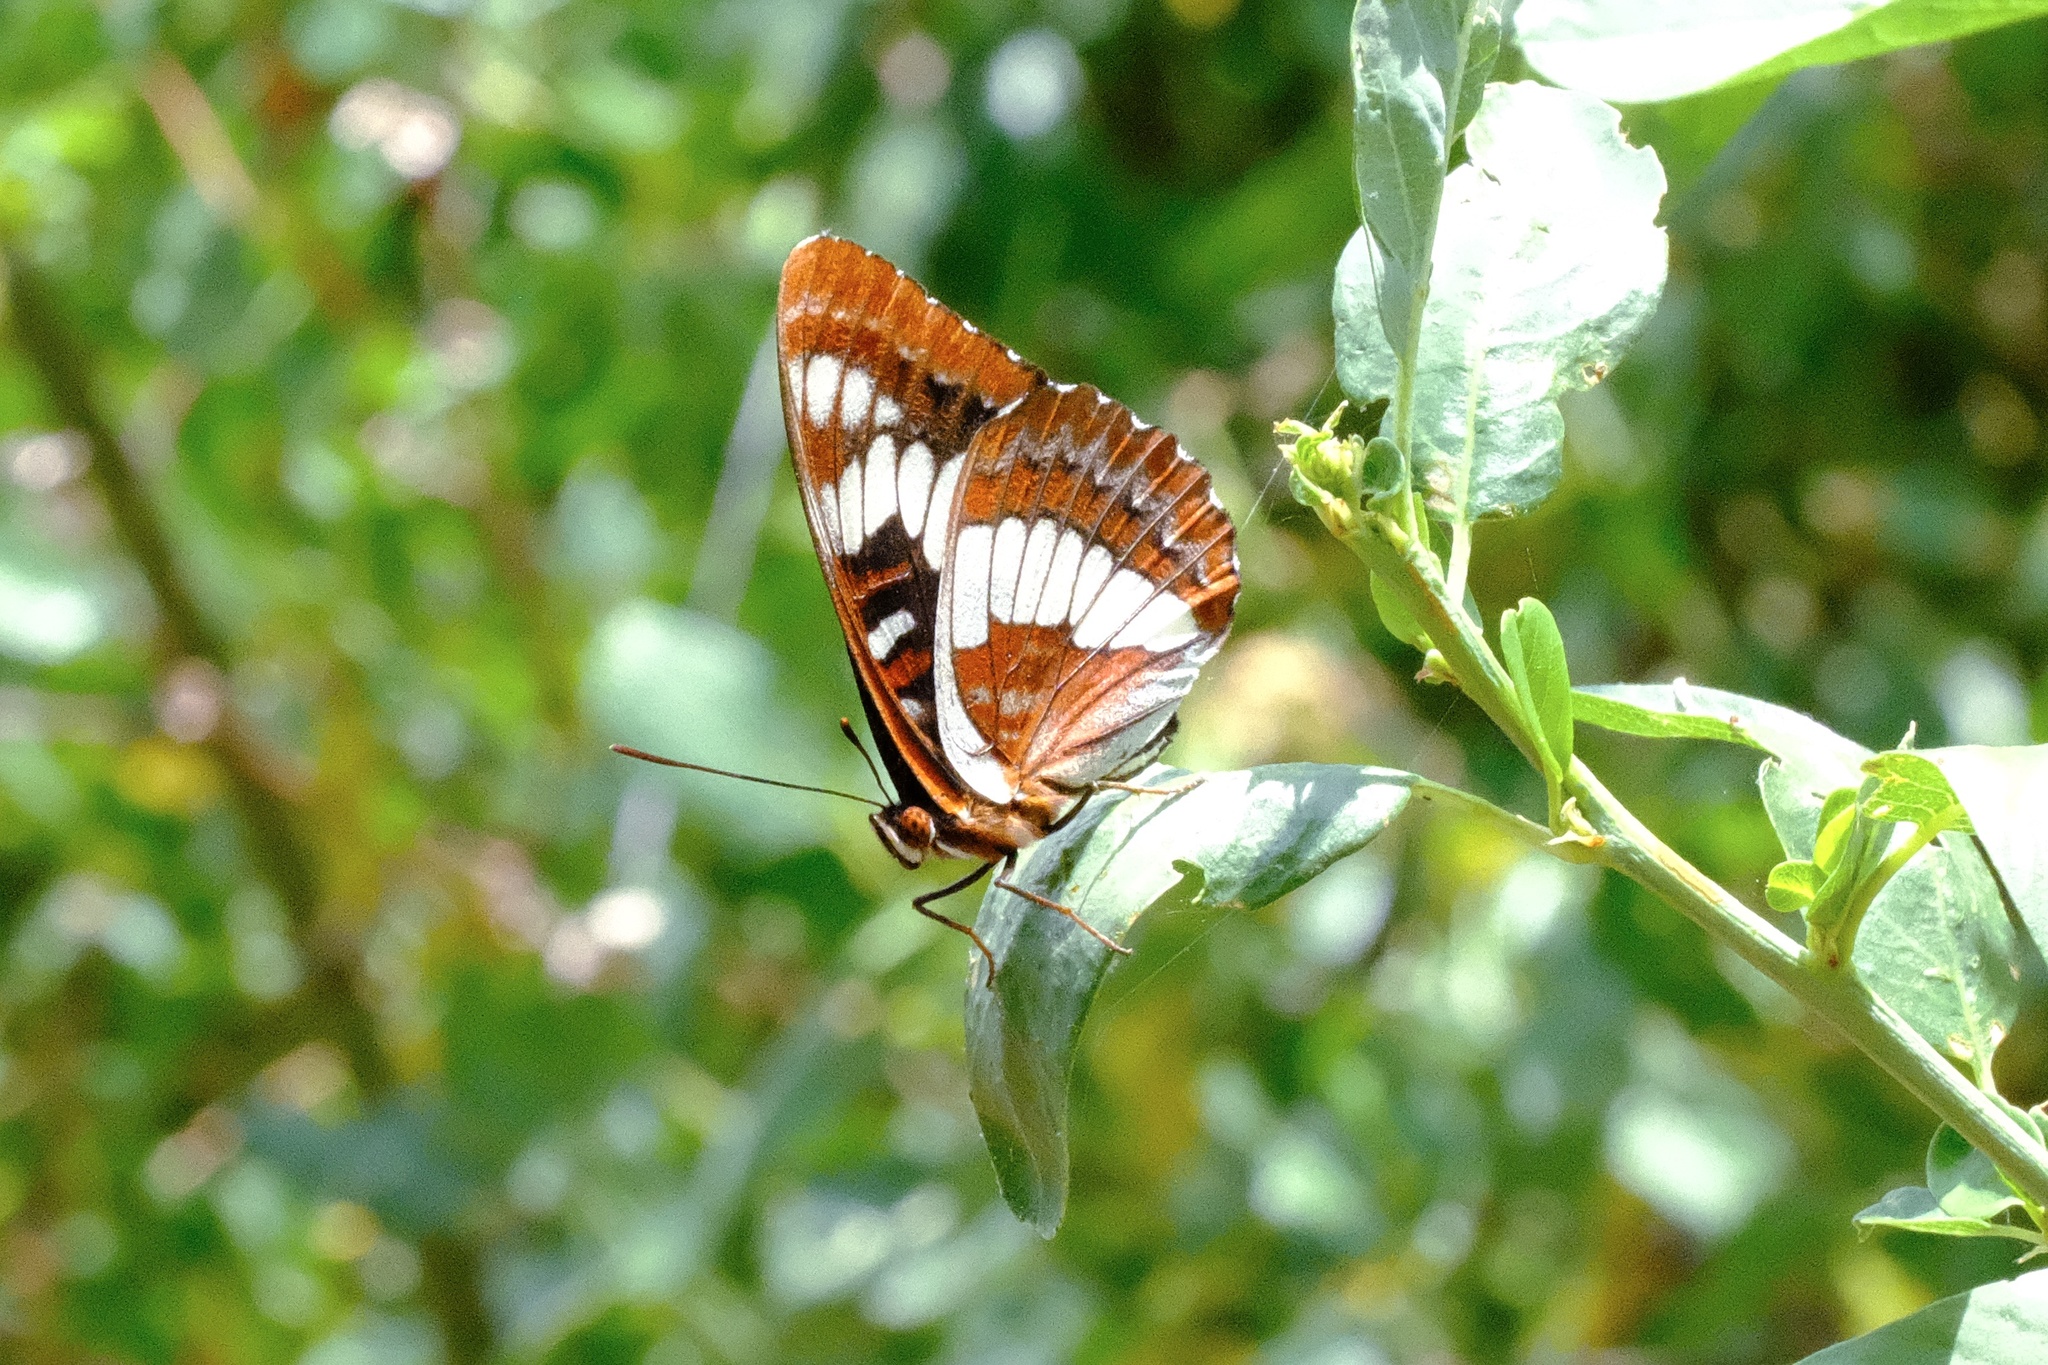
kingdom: Animalia
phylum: Arthropoda
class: Insecta
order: Lepidoptera
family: Nymphalidae
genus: Limenitis
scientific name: Limenitis lorquini
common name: Lorquin's admiral
